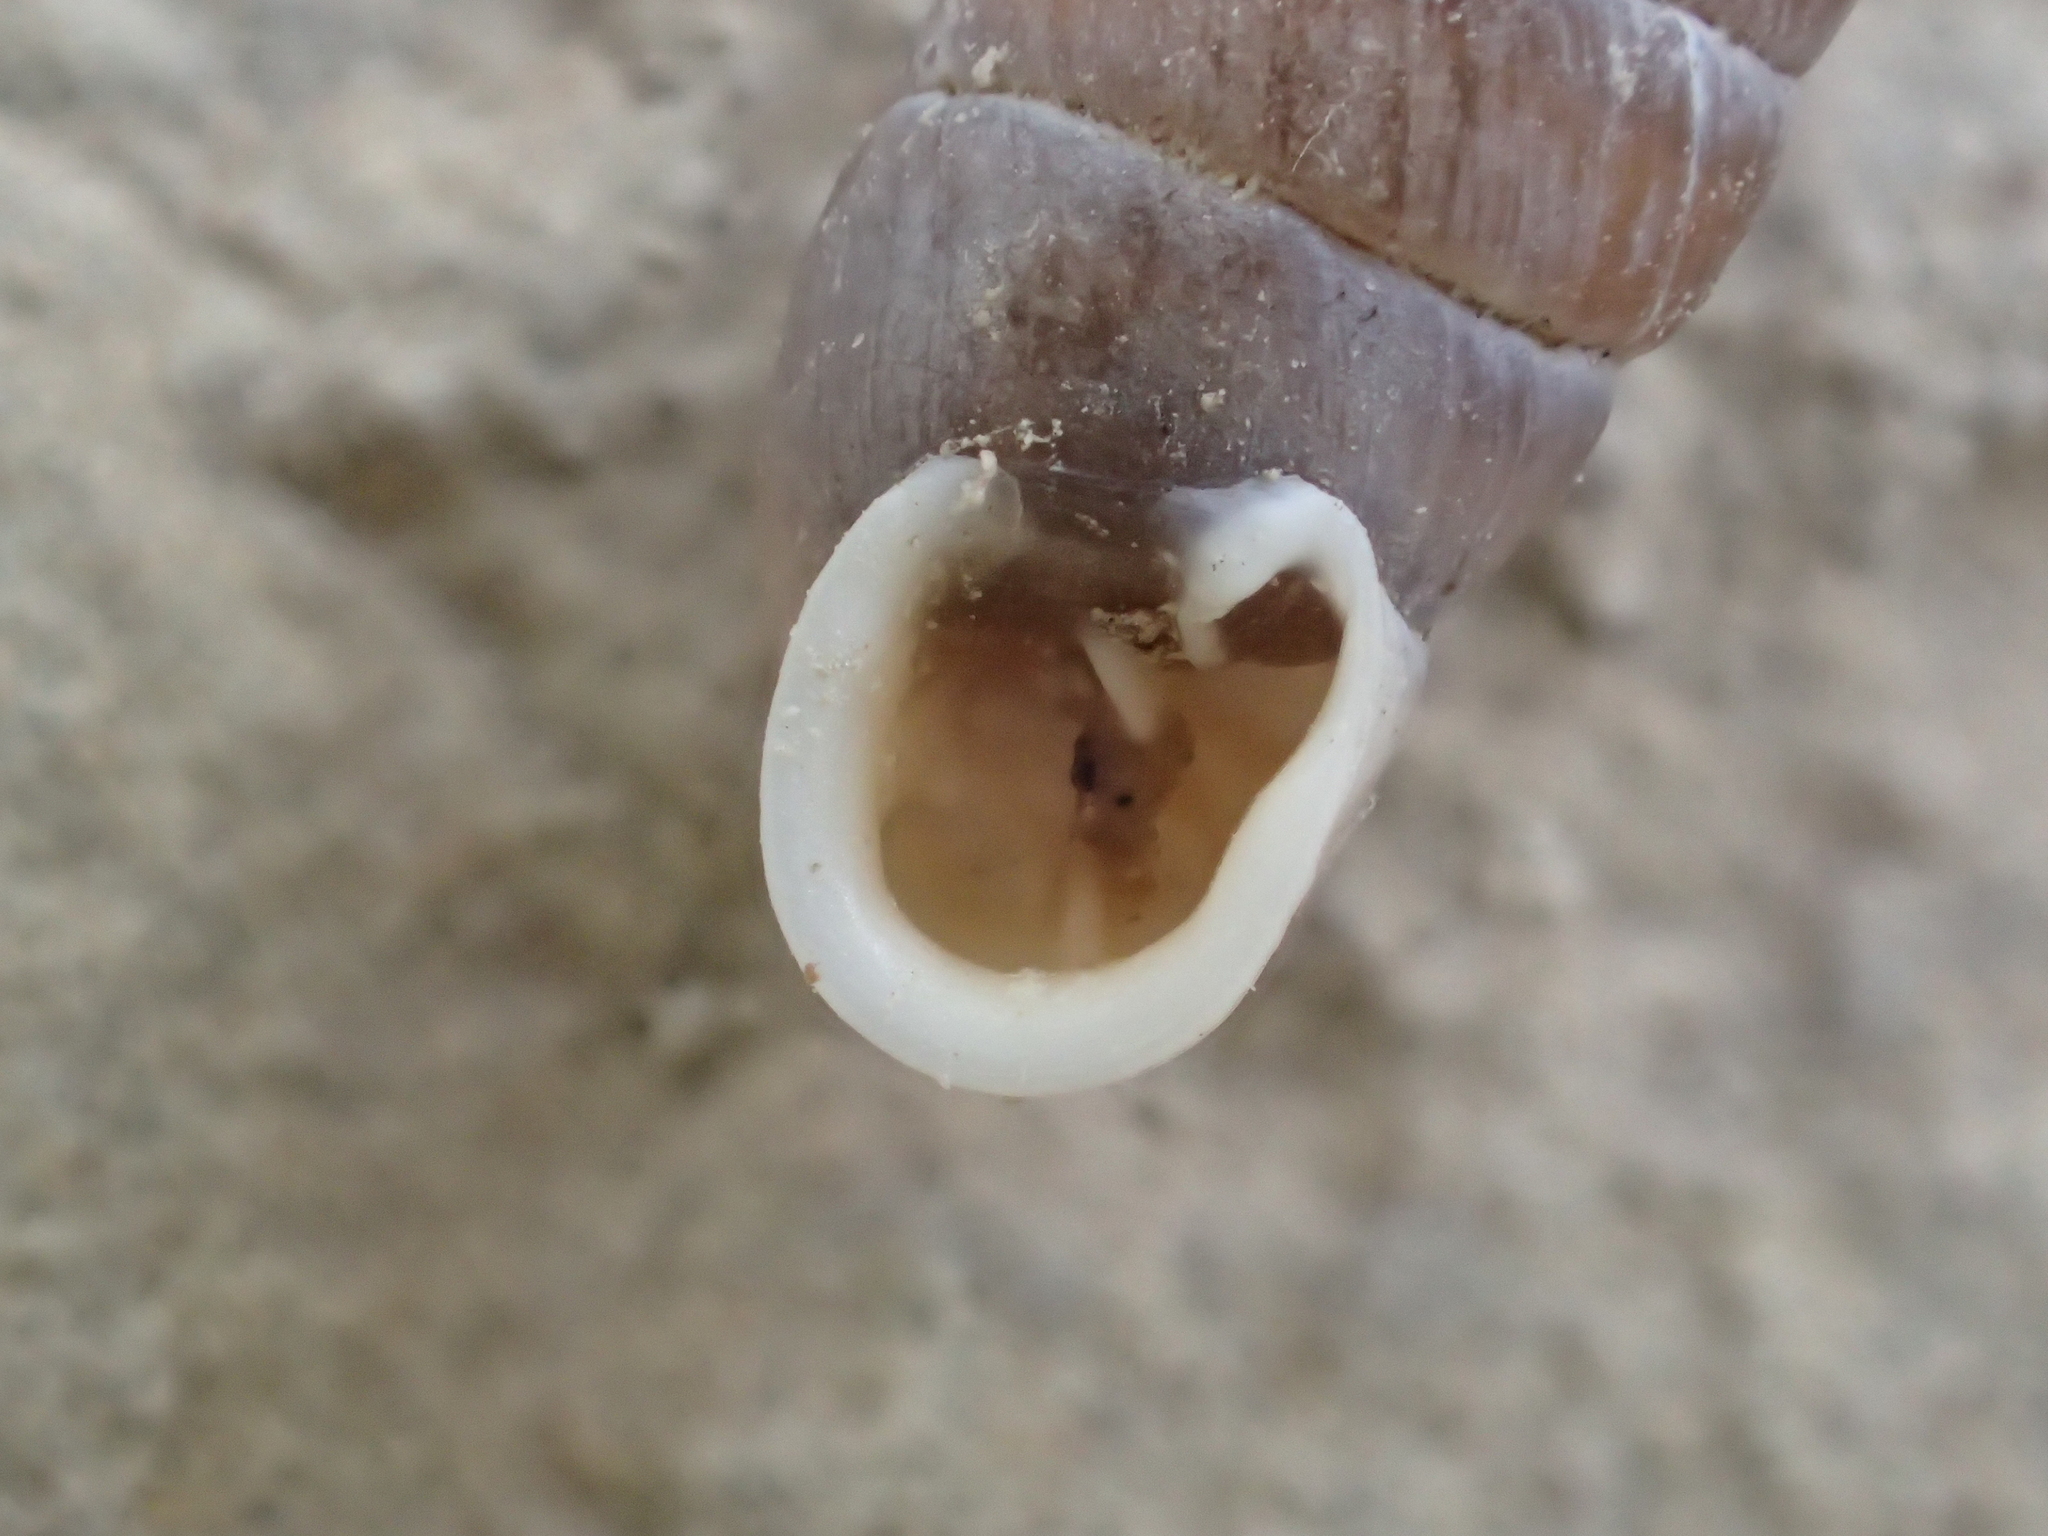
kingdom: Animalia
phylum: Mollusca
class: Gastropoda
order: Stylommatophora
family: Chondrinidae
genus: Granaria
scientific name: Granaria variabilis
